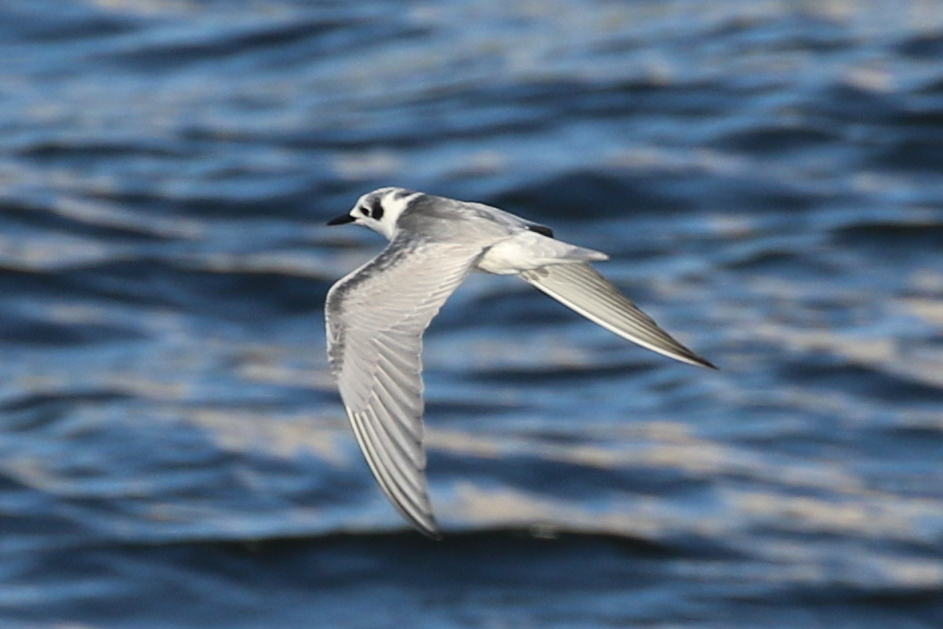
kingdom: Animalia
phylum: Chordata
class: Aves
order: Charadriiformes
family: Laridae
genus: Chlidonias
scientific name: Chlidonias leucopterus
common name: White-winged tern
